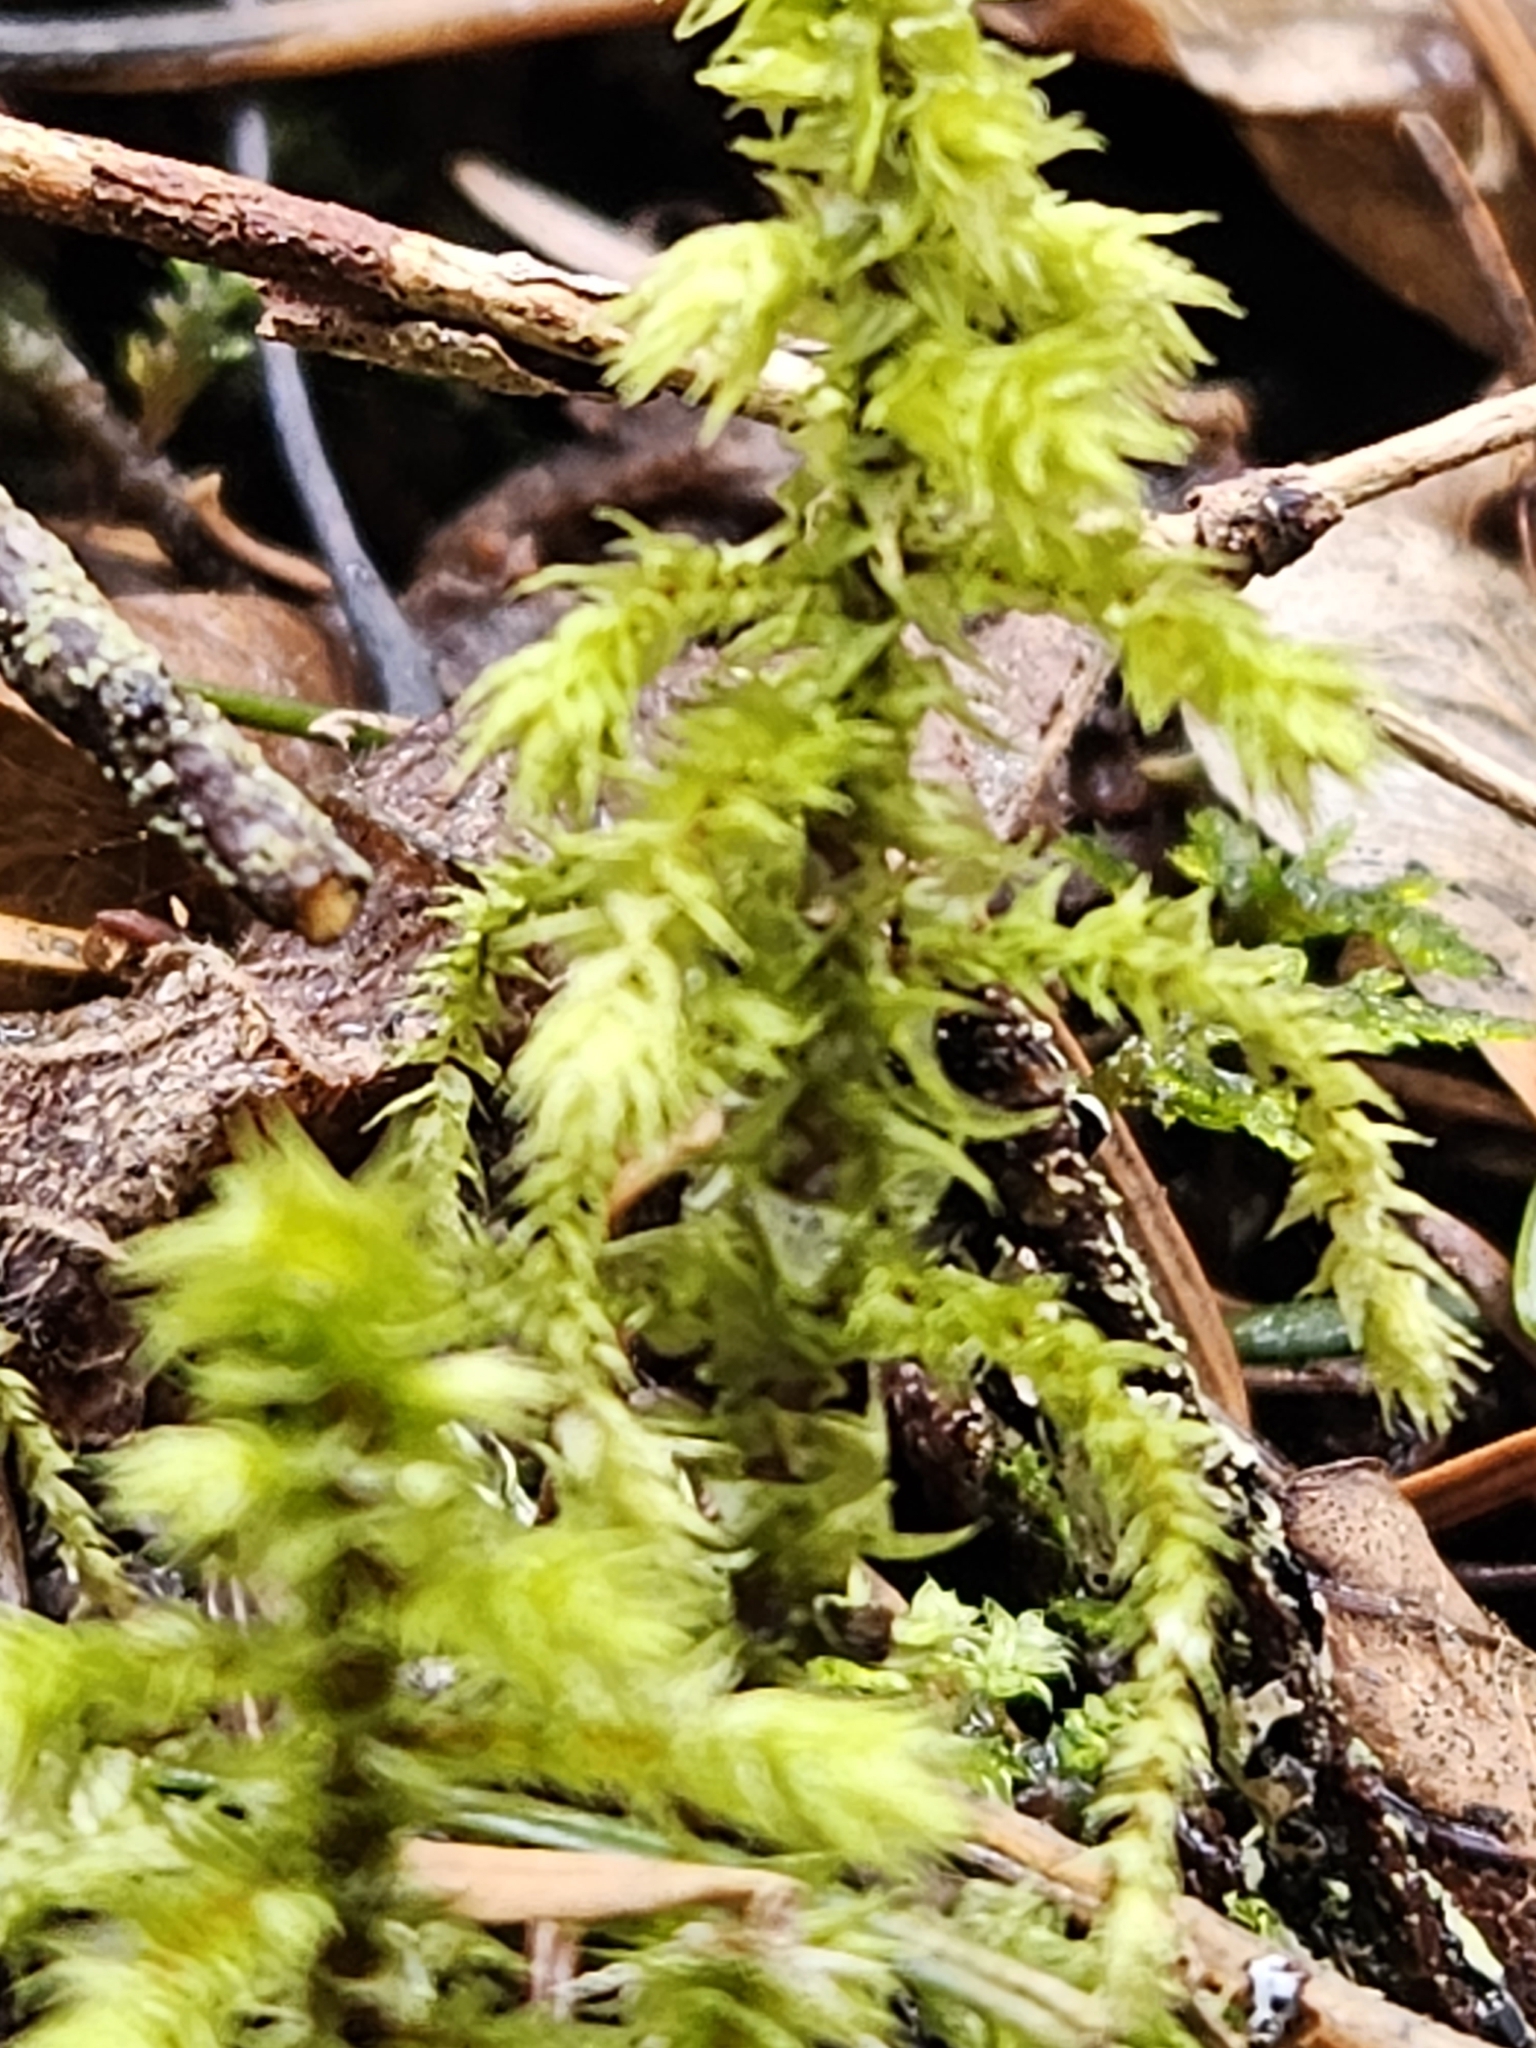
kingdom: Plantae
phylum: Bryophyta
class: Bryopsida
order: Hypnales
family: Hylocomiaceae
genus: Hylocomiadelphus
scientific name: Hylocomiadelphus triquetrus
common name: Rough goose neck moss
